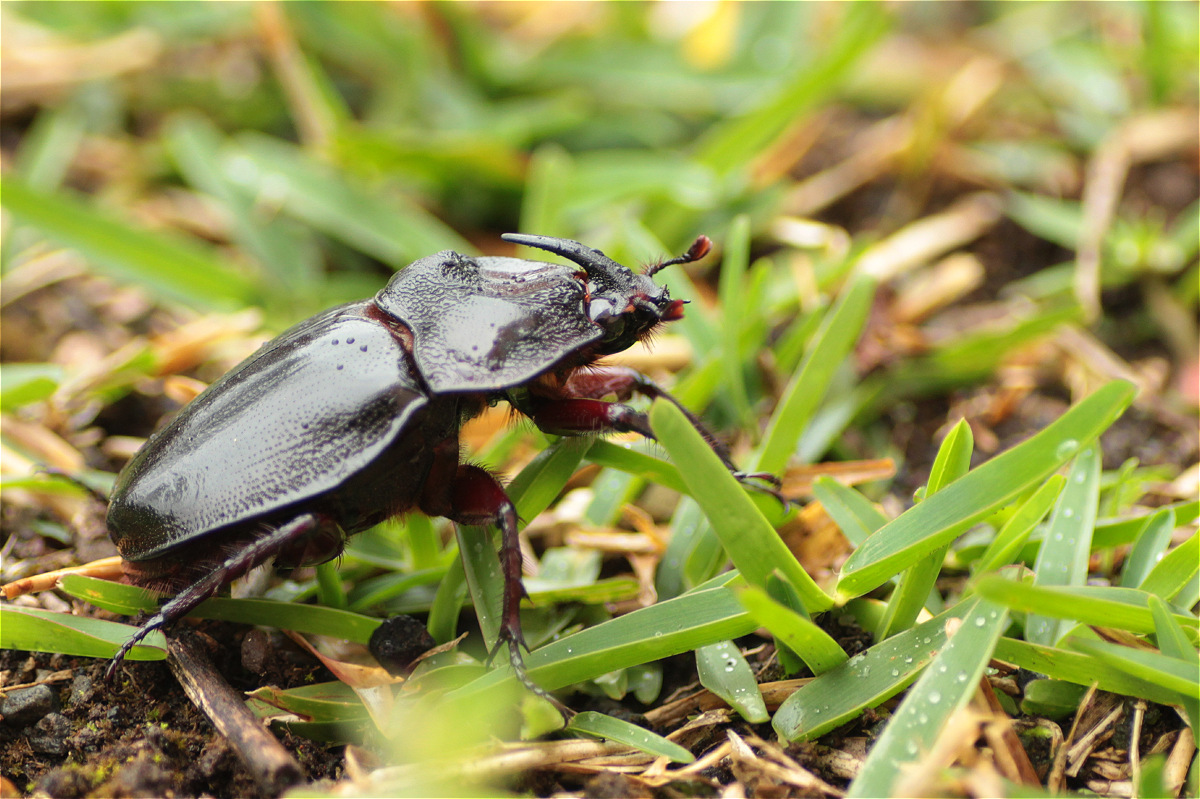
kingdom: Animalia
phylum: Arthropoda
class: Insecta
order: Coleoptera
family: Scarabaeidae
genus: Enema
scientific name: Enema pan
